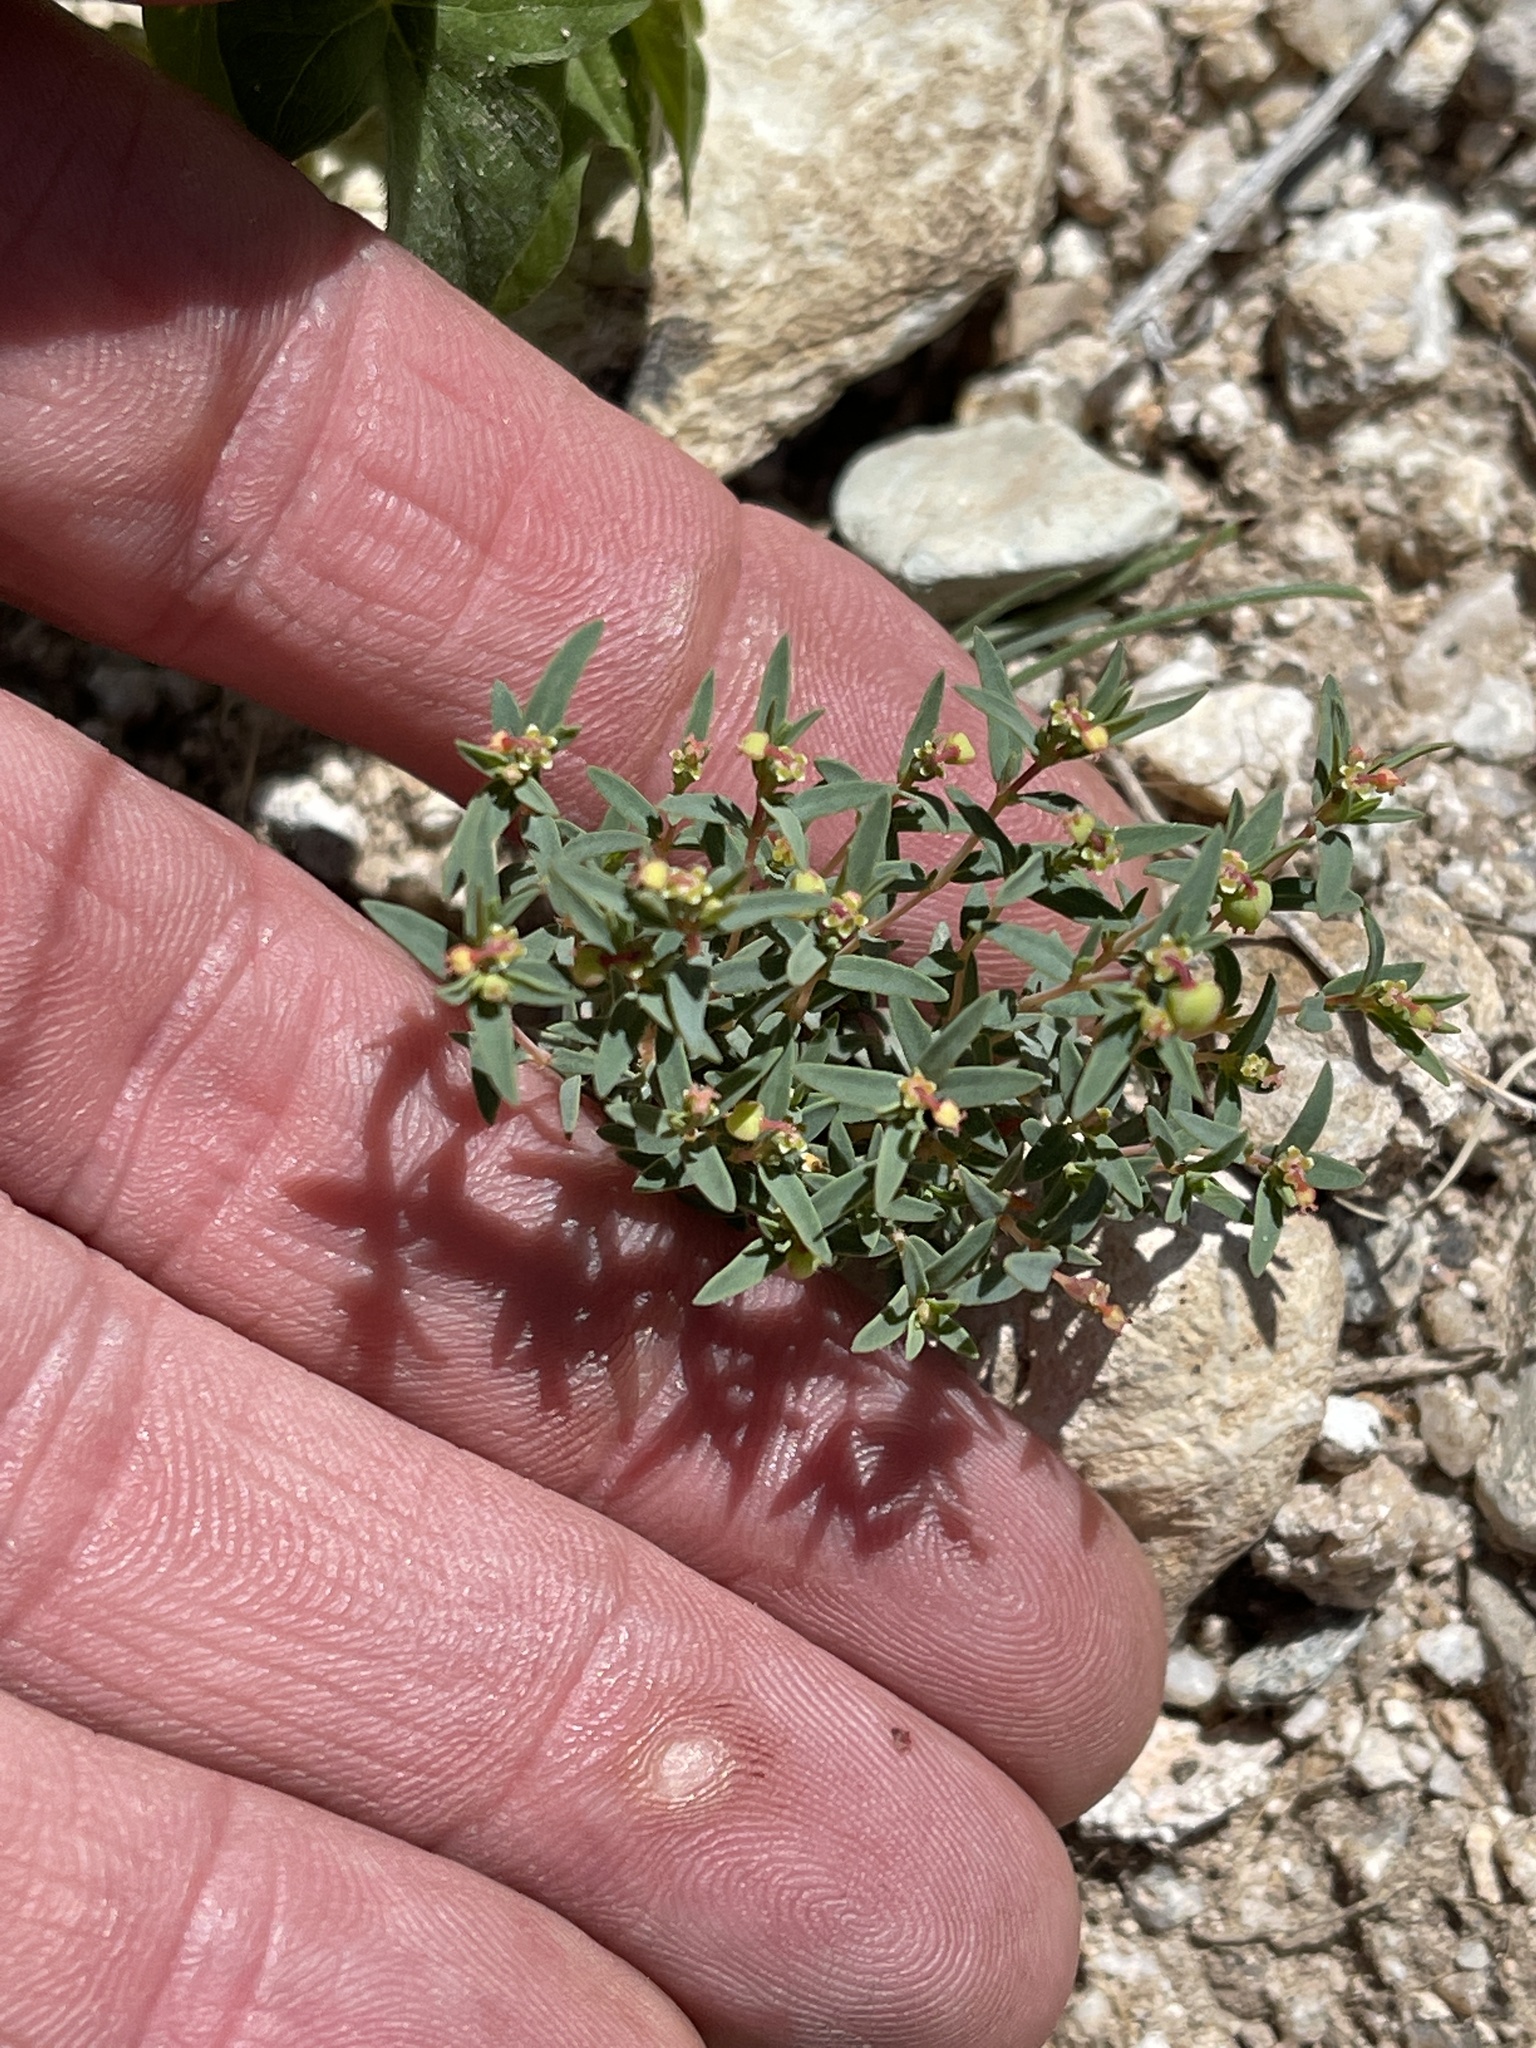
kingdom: Plantae
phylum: Tracheophyta
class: Magnoliopsida
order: Malpighiales
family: Euphorbiaceae
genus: Euphorbia
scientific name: Euphorbia chaetocalyx
